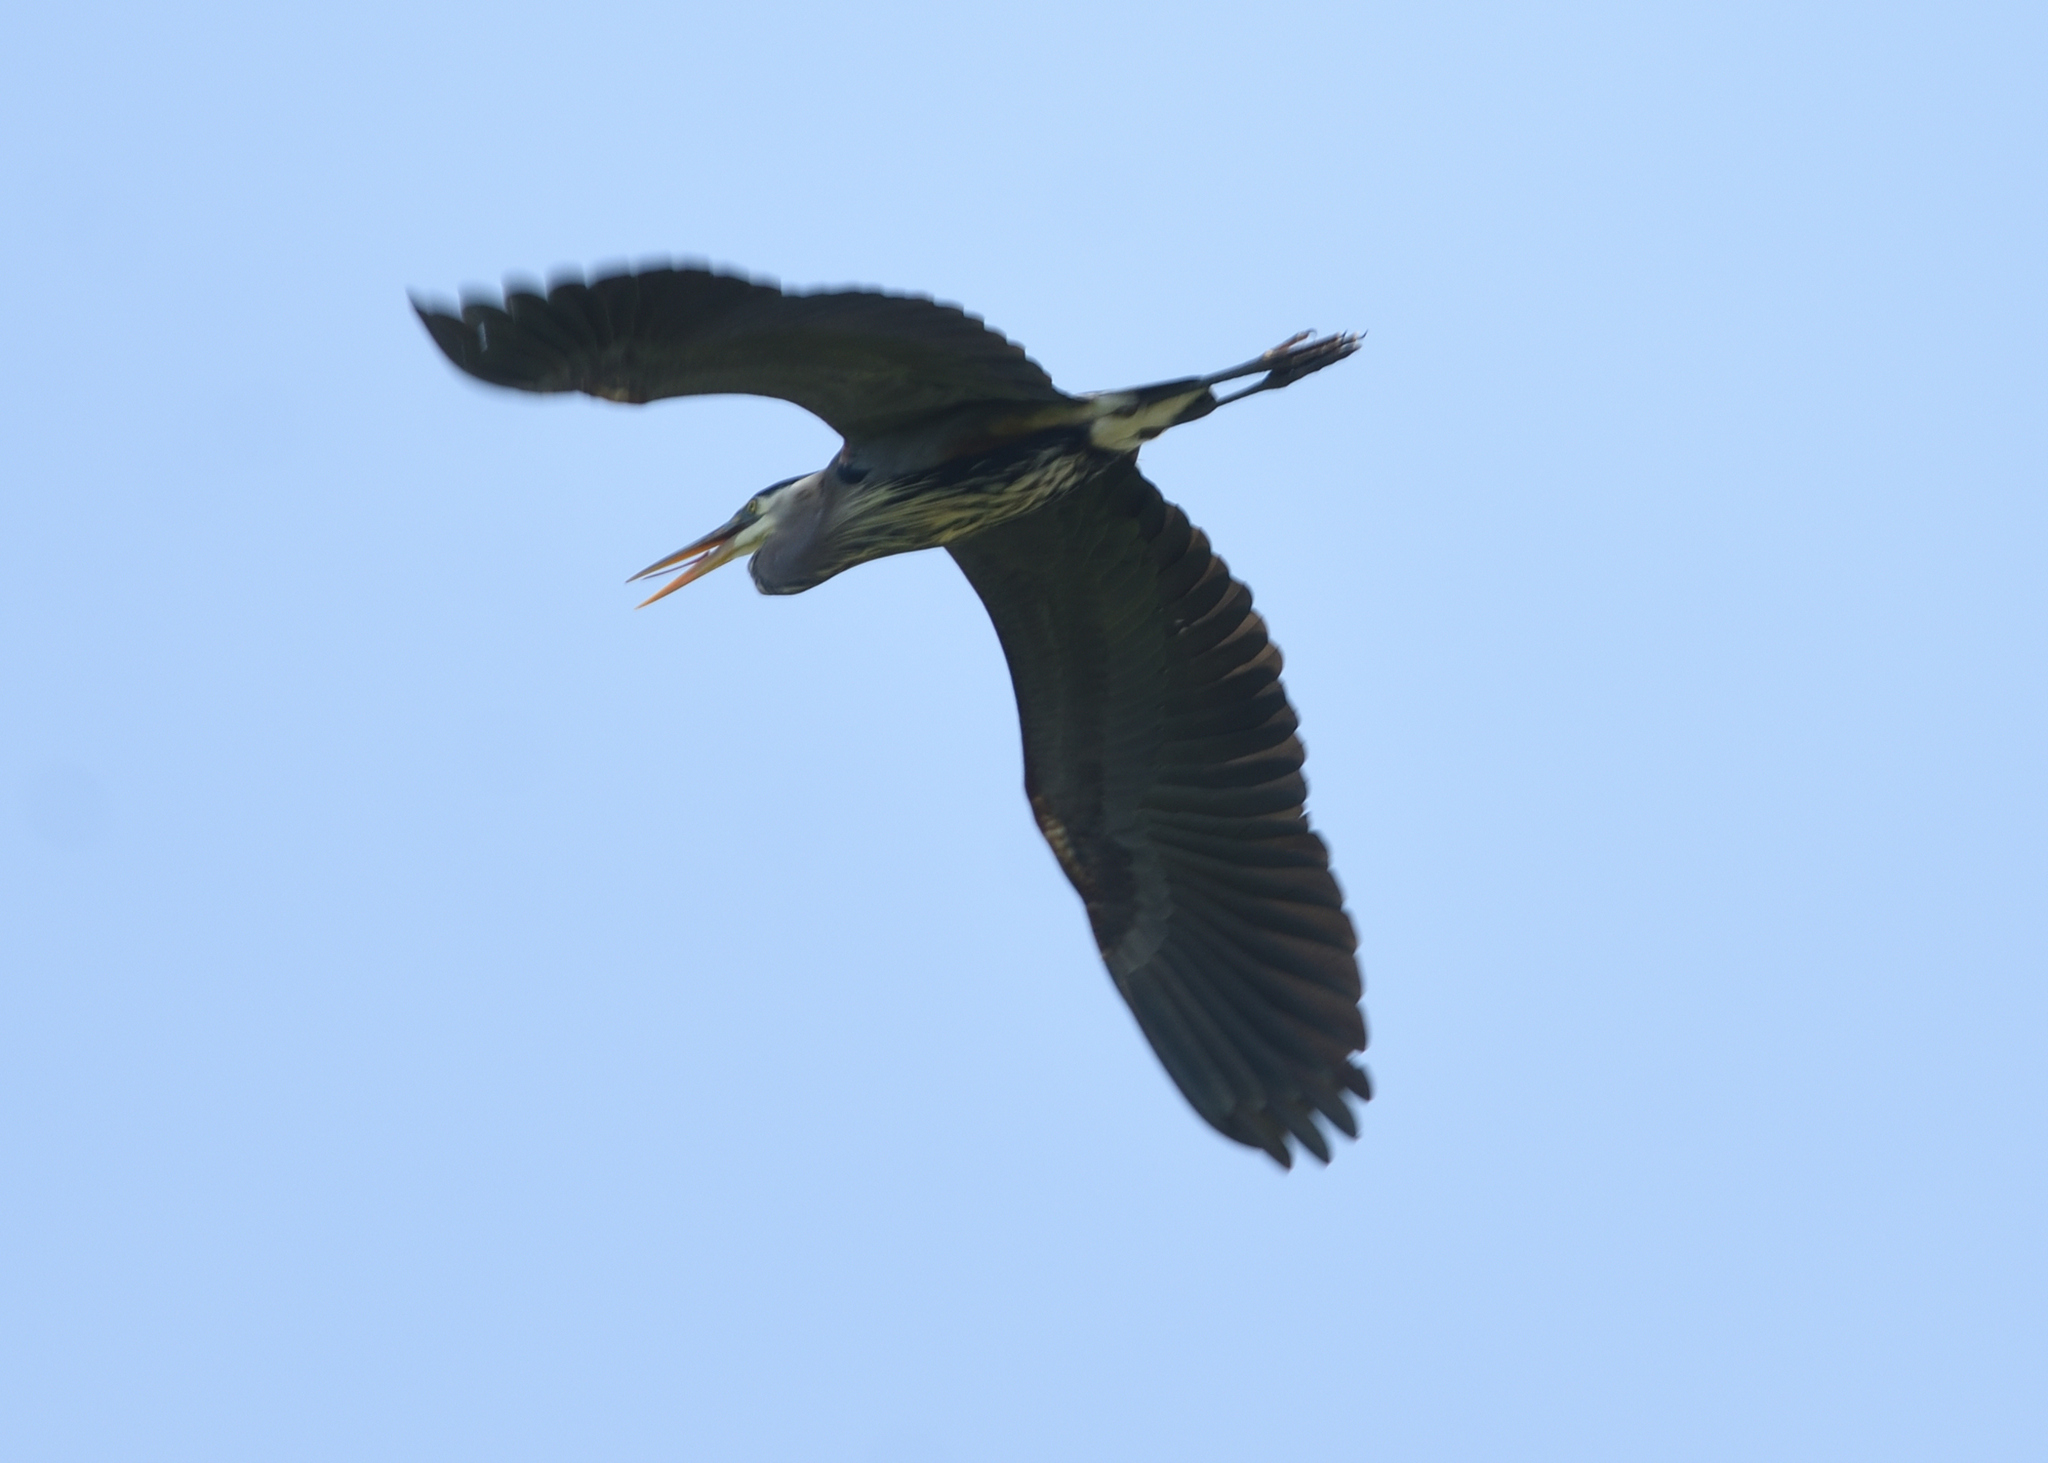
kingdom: Animalia
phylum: Chordata
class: Aves
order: Pelecaniformes
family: Ardeidae
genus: Ardea
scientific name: Ardea herodias
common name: Great blue heron
